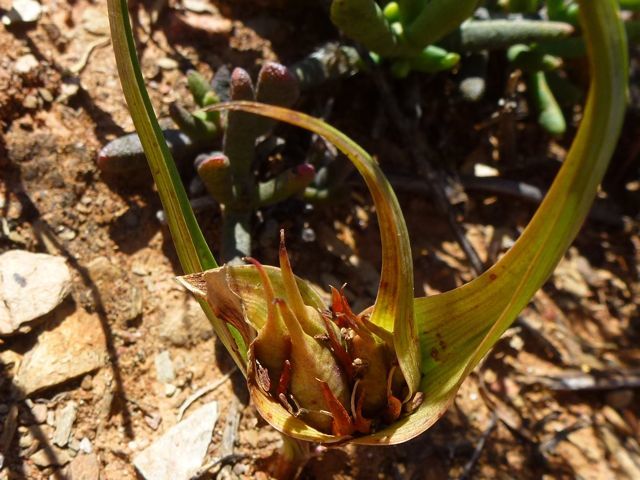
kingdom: Plantae
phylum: Tracheophyta
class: Liliopsida
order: Liliales
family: Colchicaceae
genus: Colchicum
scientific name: Colchicum longipes
